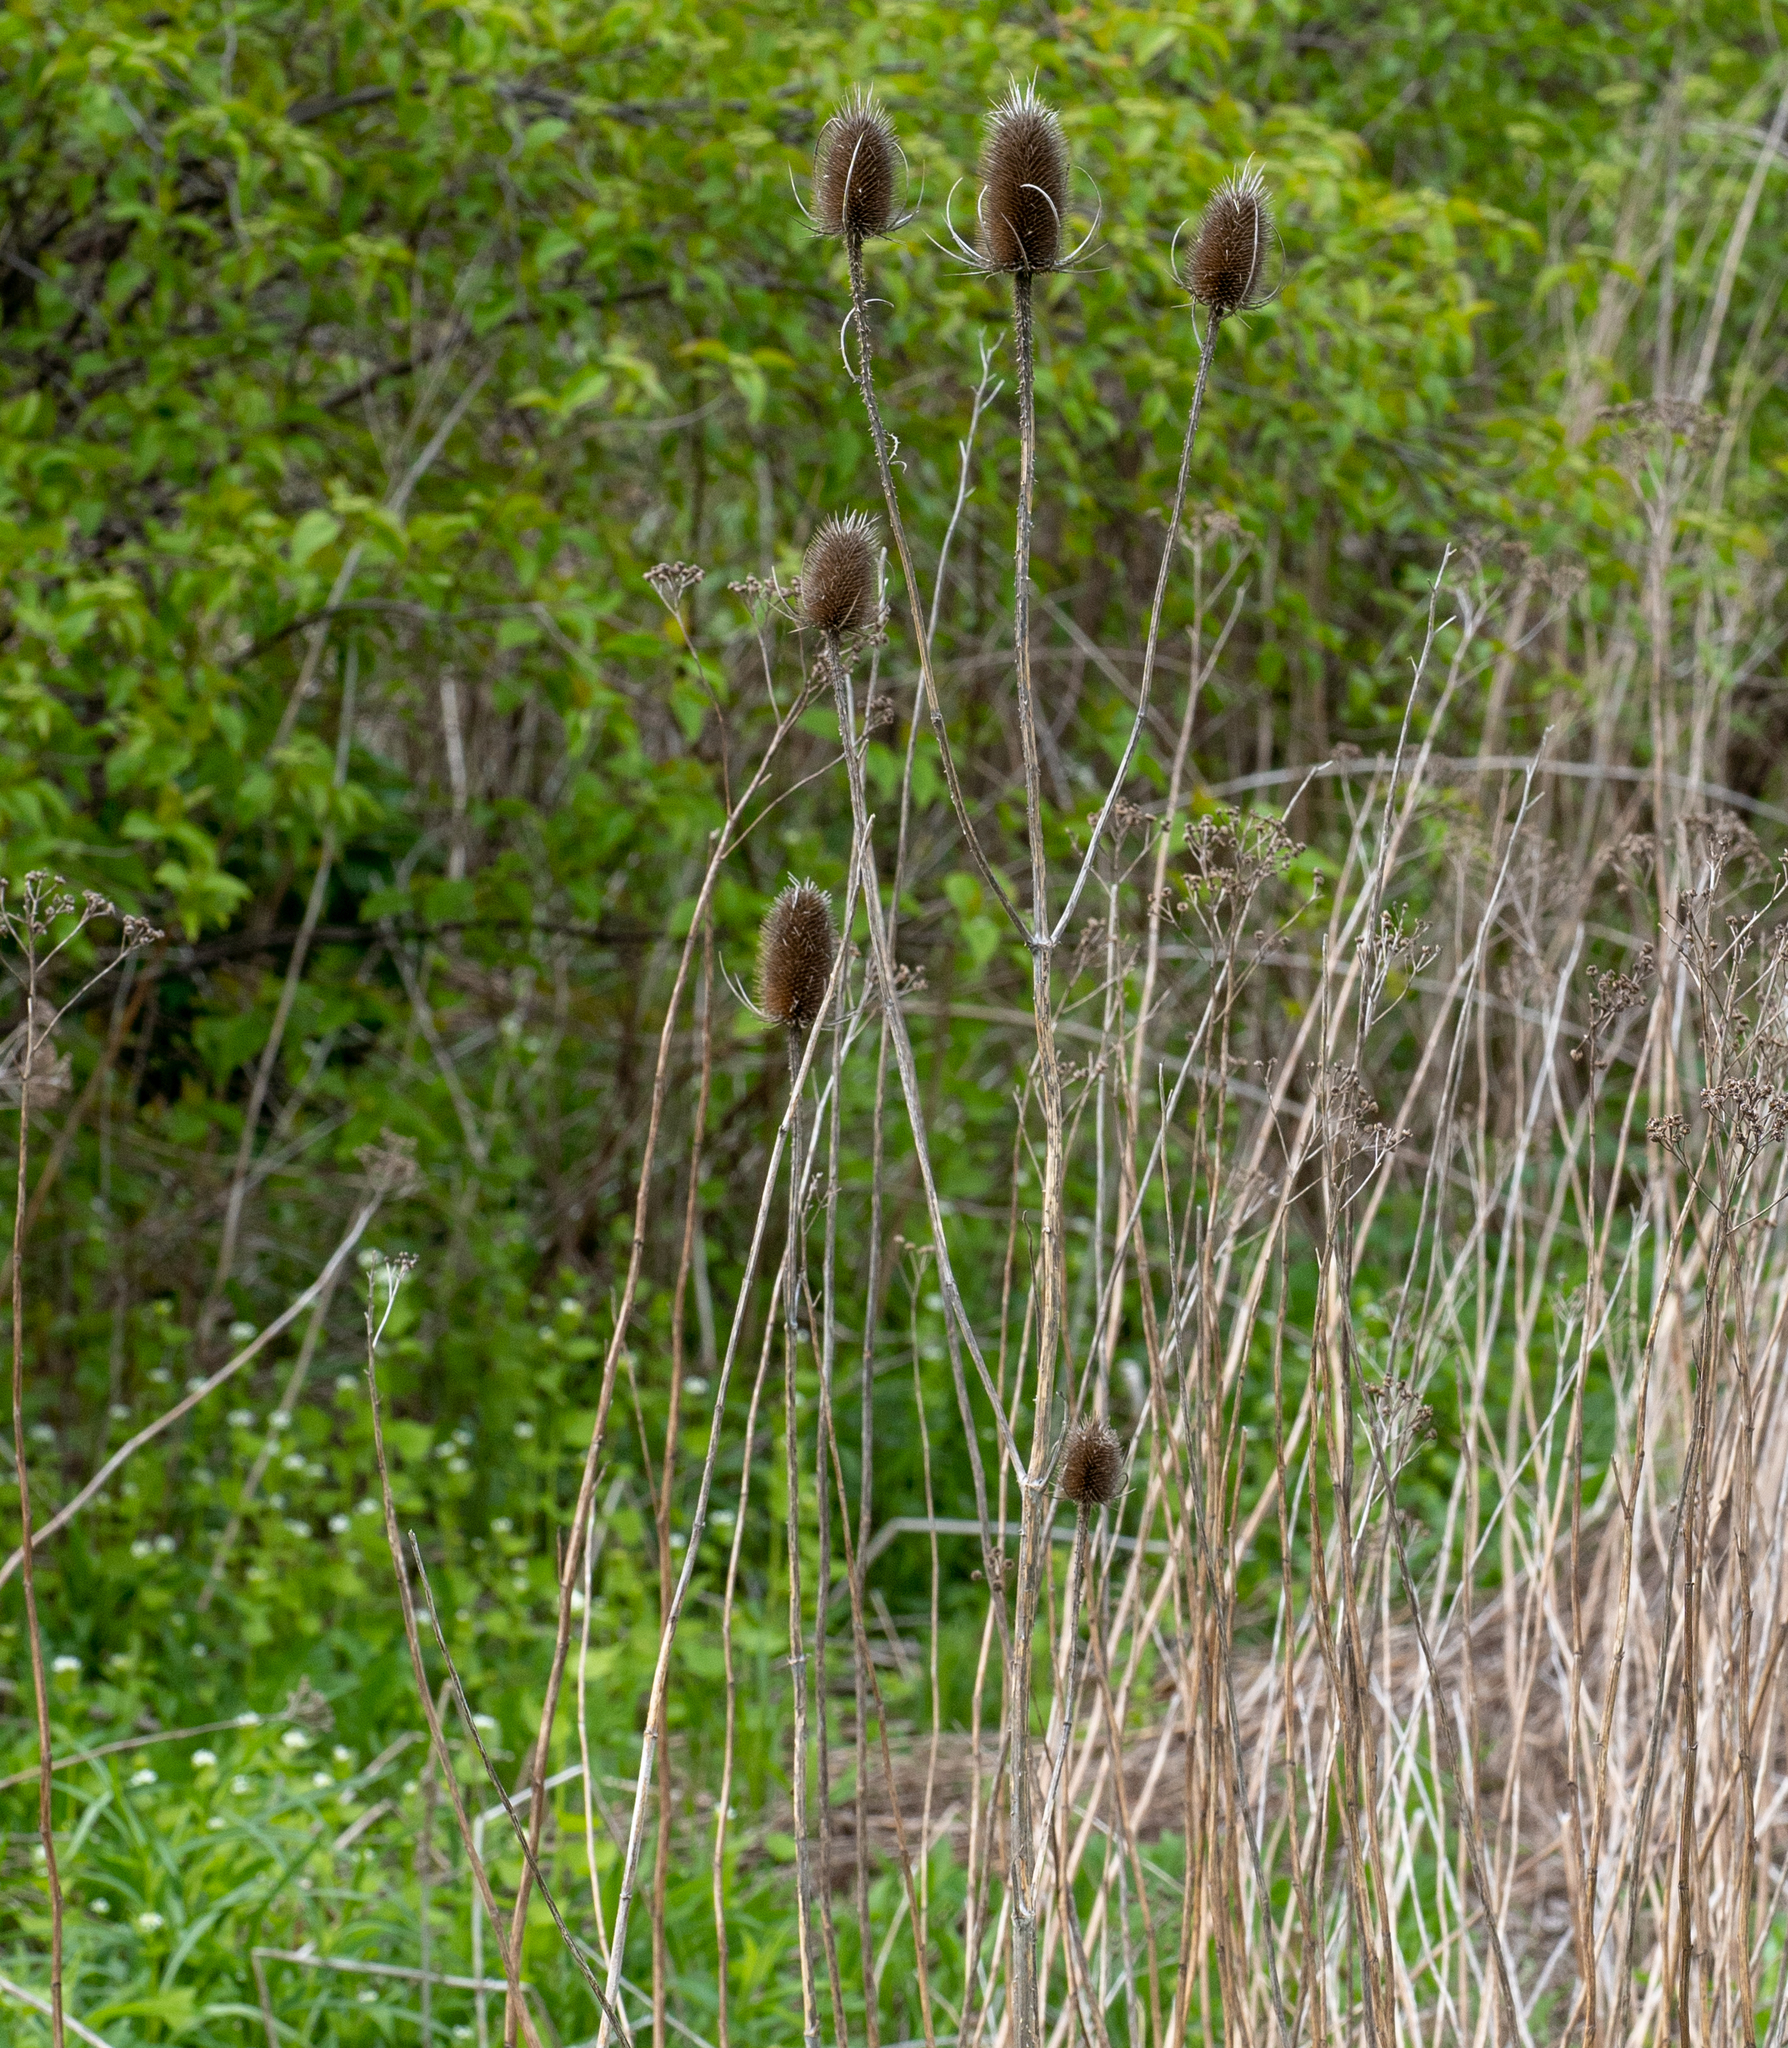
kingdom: Plantae
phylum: Tracheophyta
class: Magnoliopsida
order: Dipsacales
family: Caprifoliaceae
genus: Dipsacus
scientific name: Dipsacus fullonum
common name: Teasel
